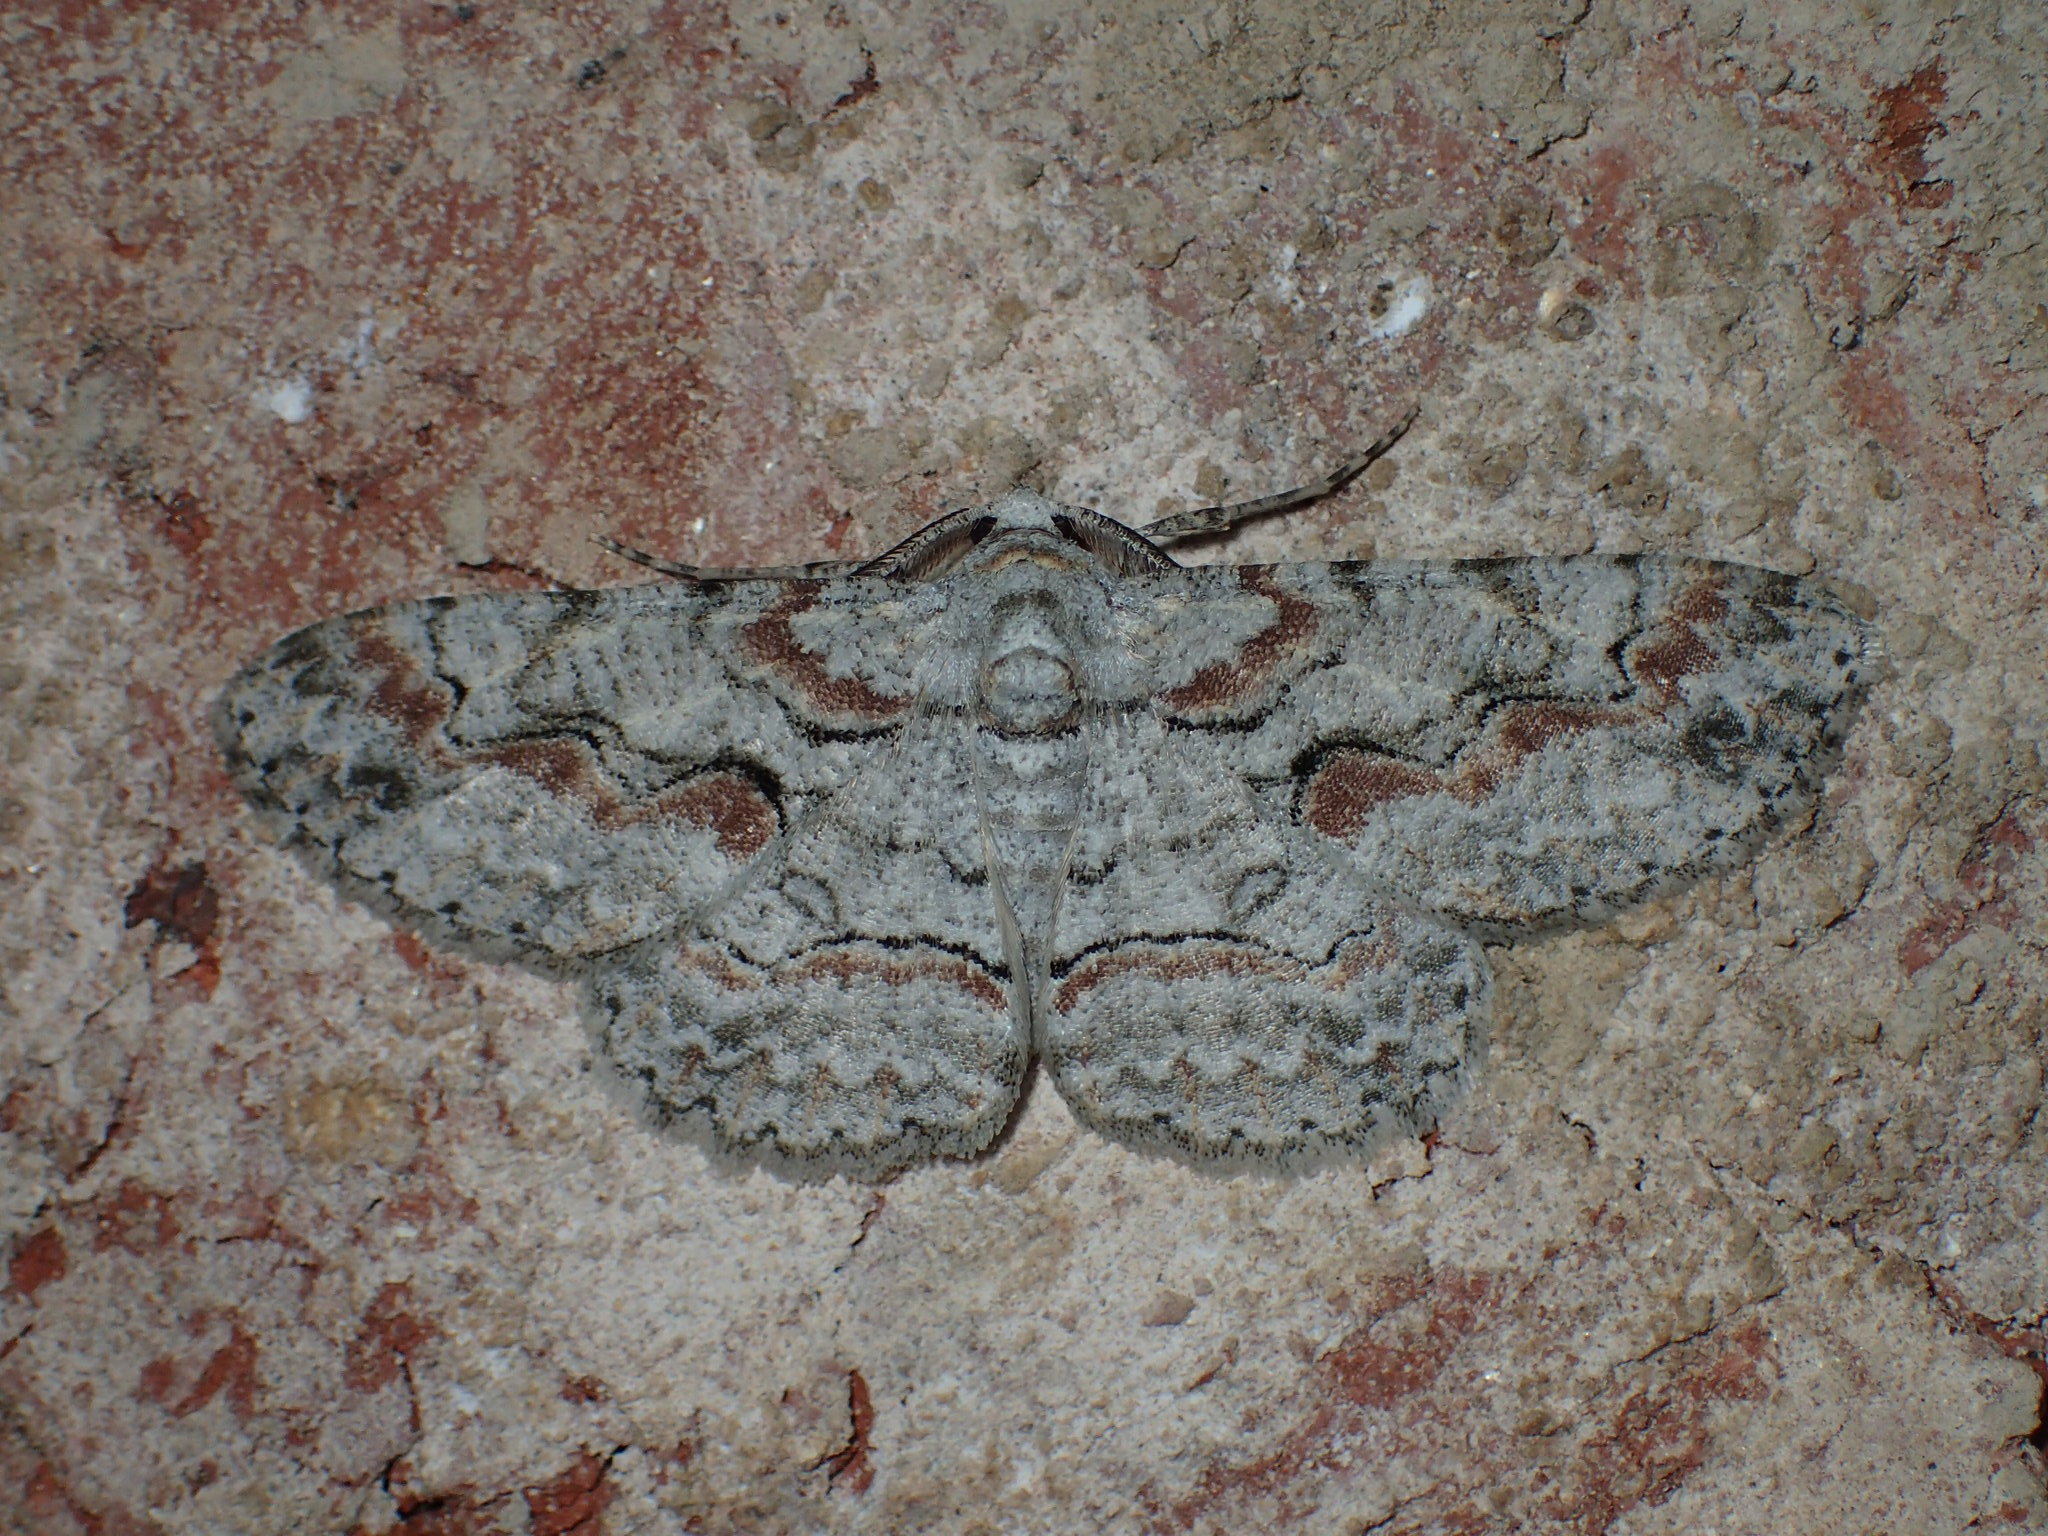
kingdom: Animalia
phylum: Arthropoda
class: Insecta
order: Lepidoptera
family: Geometridae
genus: Iridopsis
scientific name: Iridopsis defectaria
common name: Brown-shaded gray
